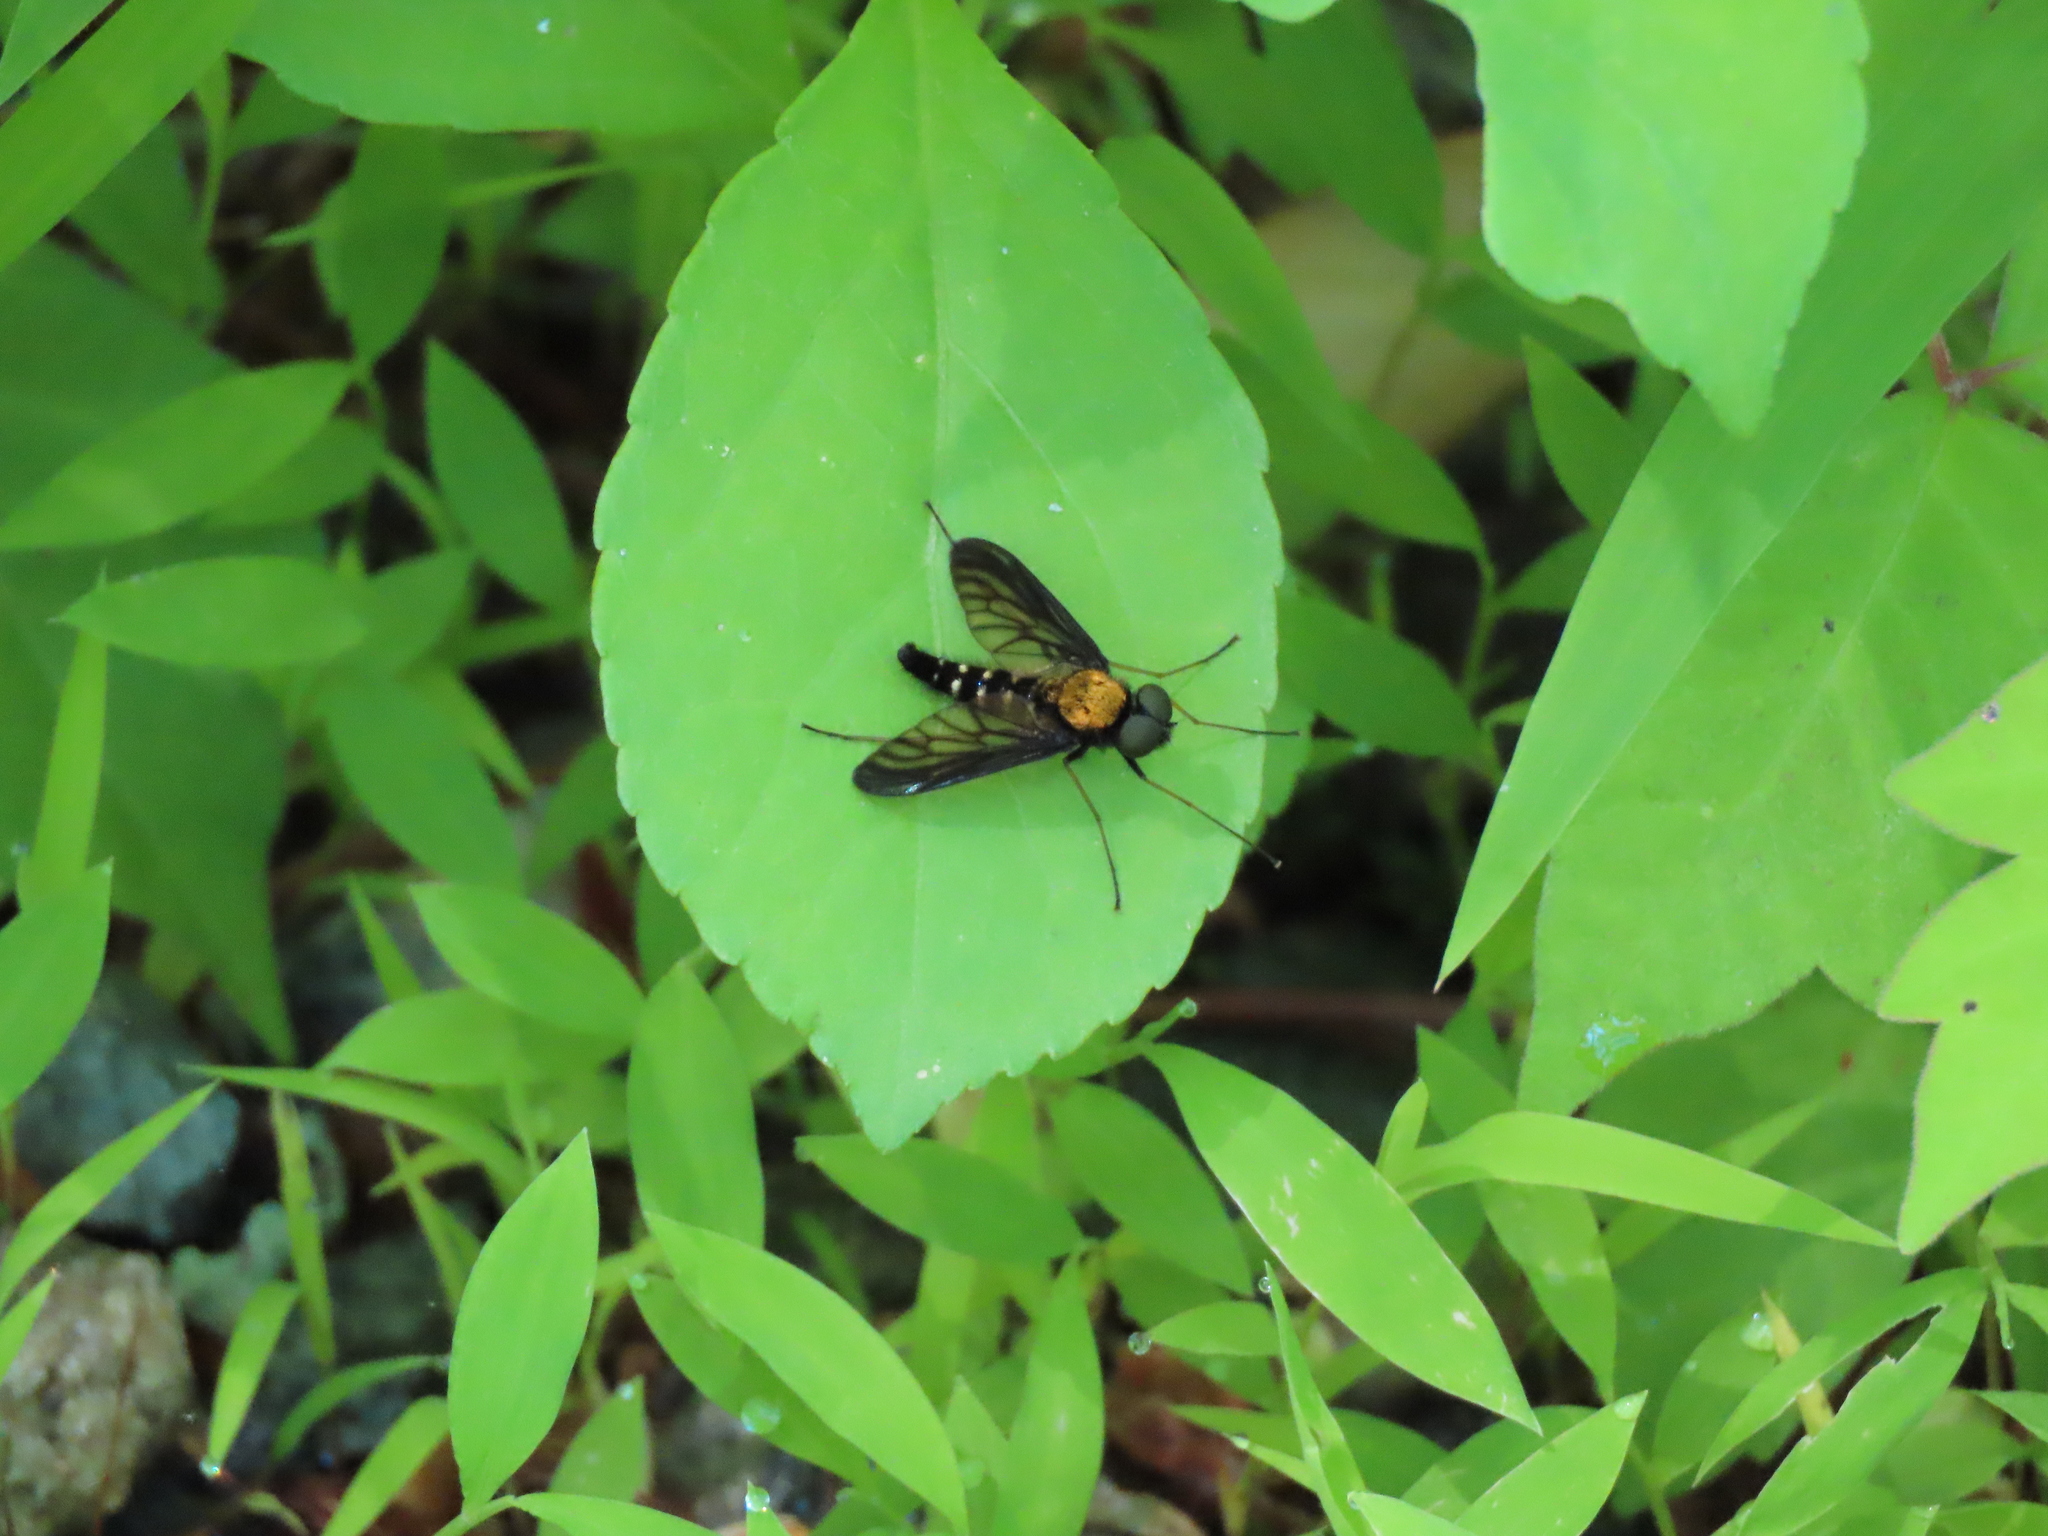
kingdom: Animalia
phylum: Arthropoda
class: Insecta
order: Diptera
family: Rhagionidae
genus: Chrysopilus
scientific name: Chrysopilus thoracicus
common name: Golden-backed snipe fly
